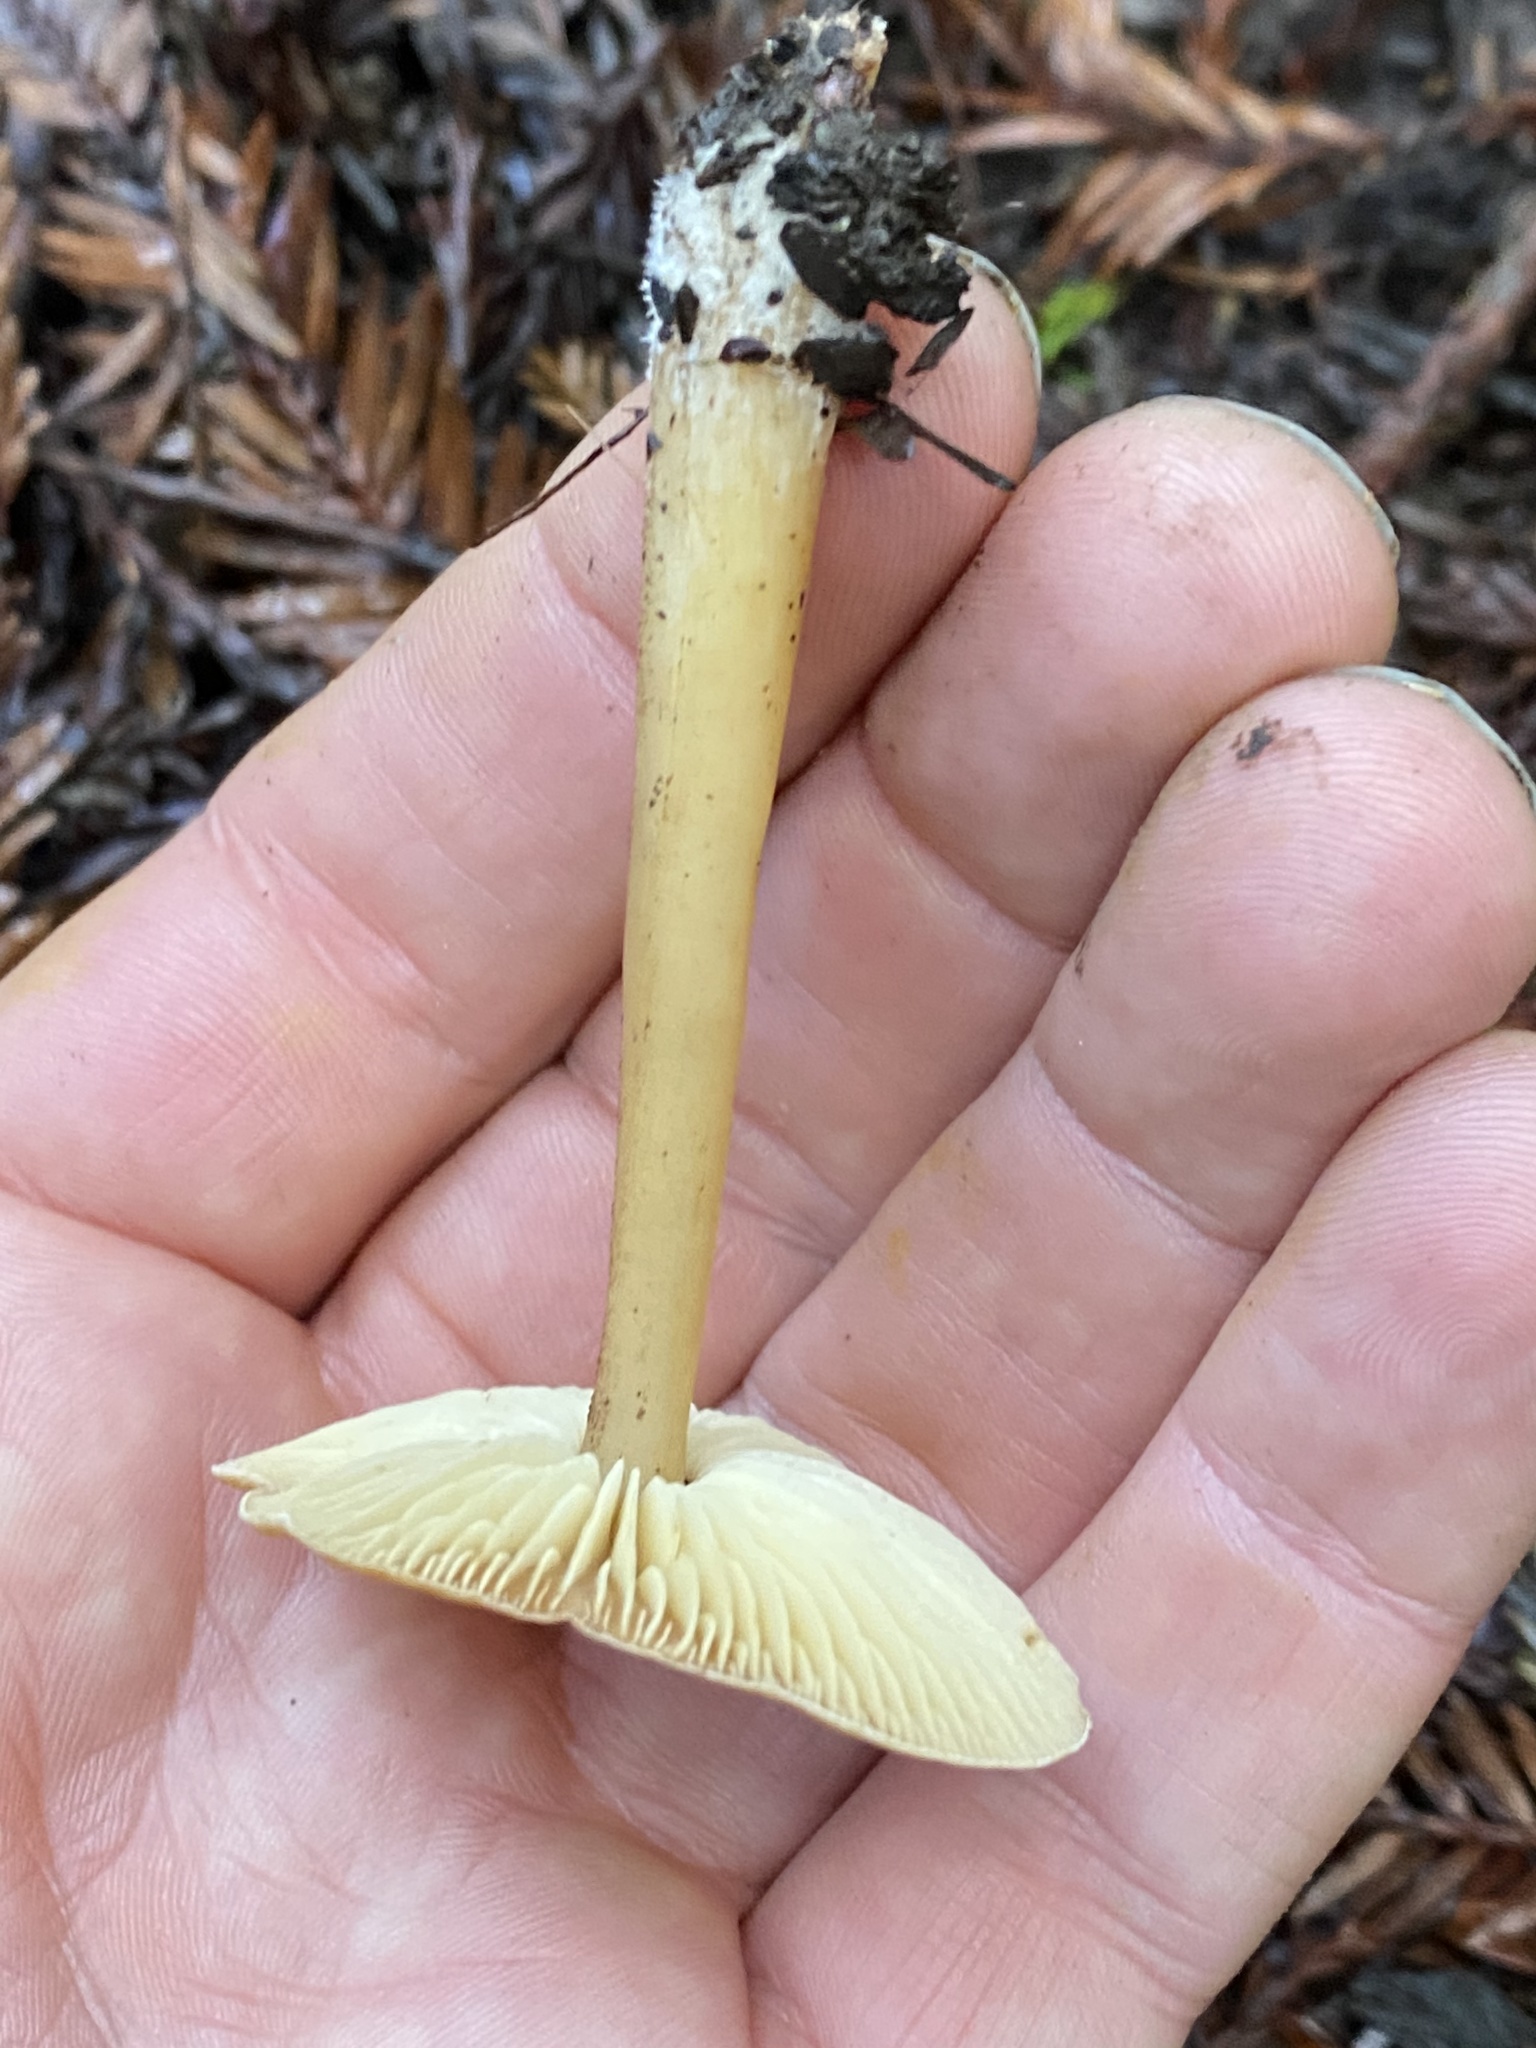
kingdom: Fungi
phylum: Basidiomycota
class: Agaricomycetes
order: Agaricales
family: Tricholomataceae
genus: Caulorhiza
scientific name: Caulorhiza umbonata
